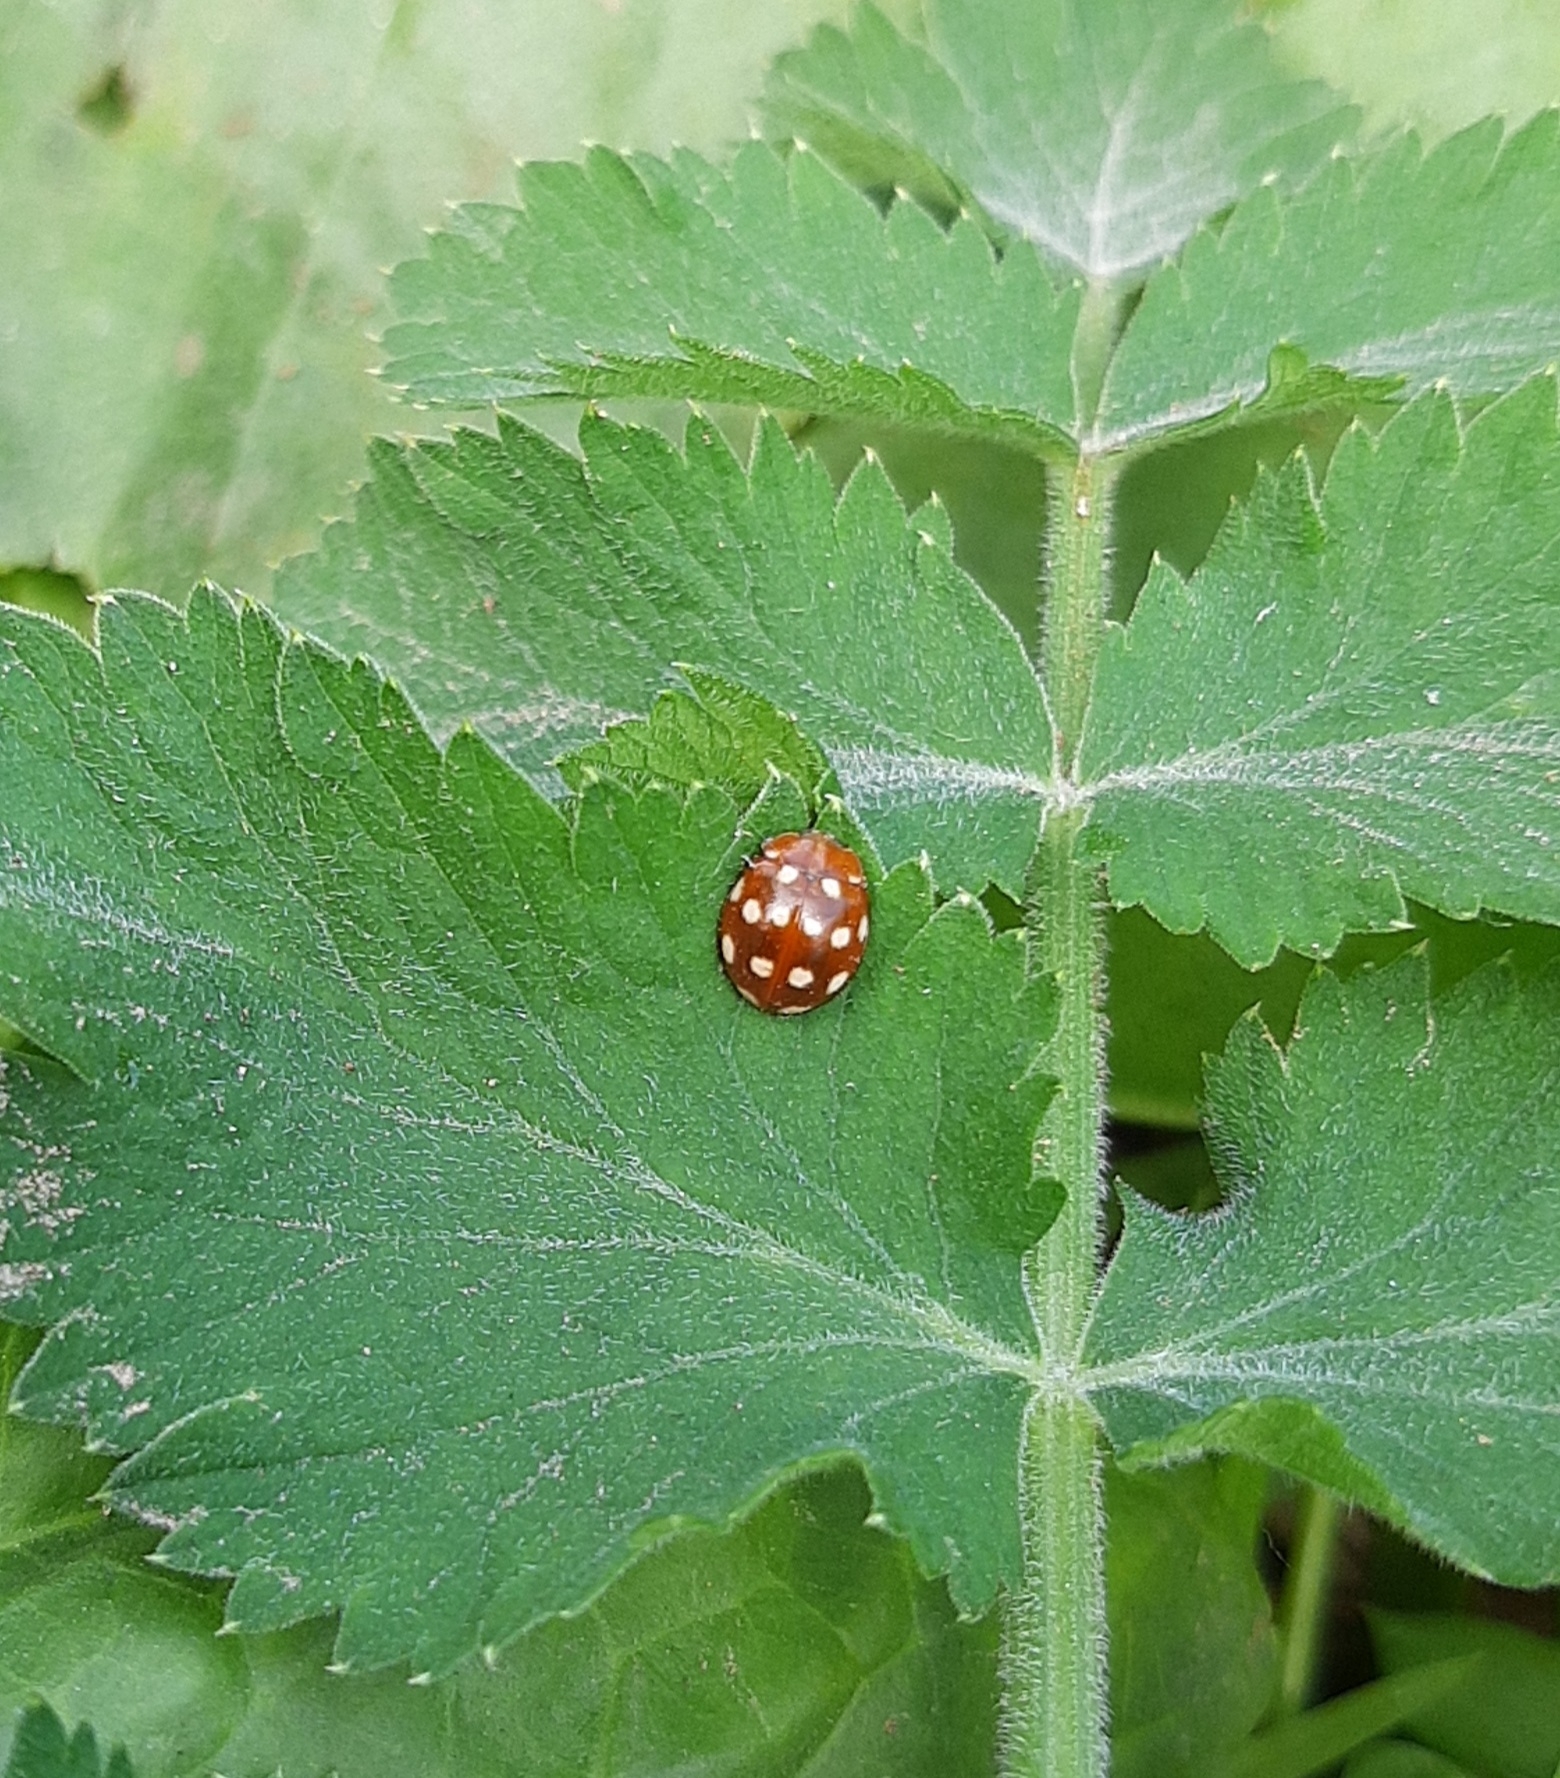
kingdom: Animalia
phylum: Arthropoda
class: Insecta
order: Coleoptera
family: Coccinellidae
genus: Calvia
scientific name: Calvia quatuordecimguttata
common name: Cream-spot ladybird
